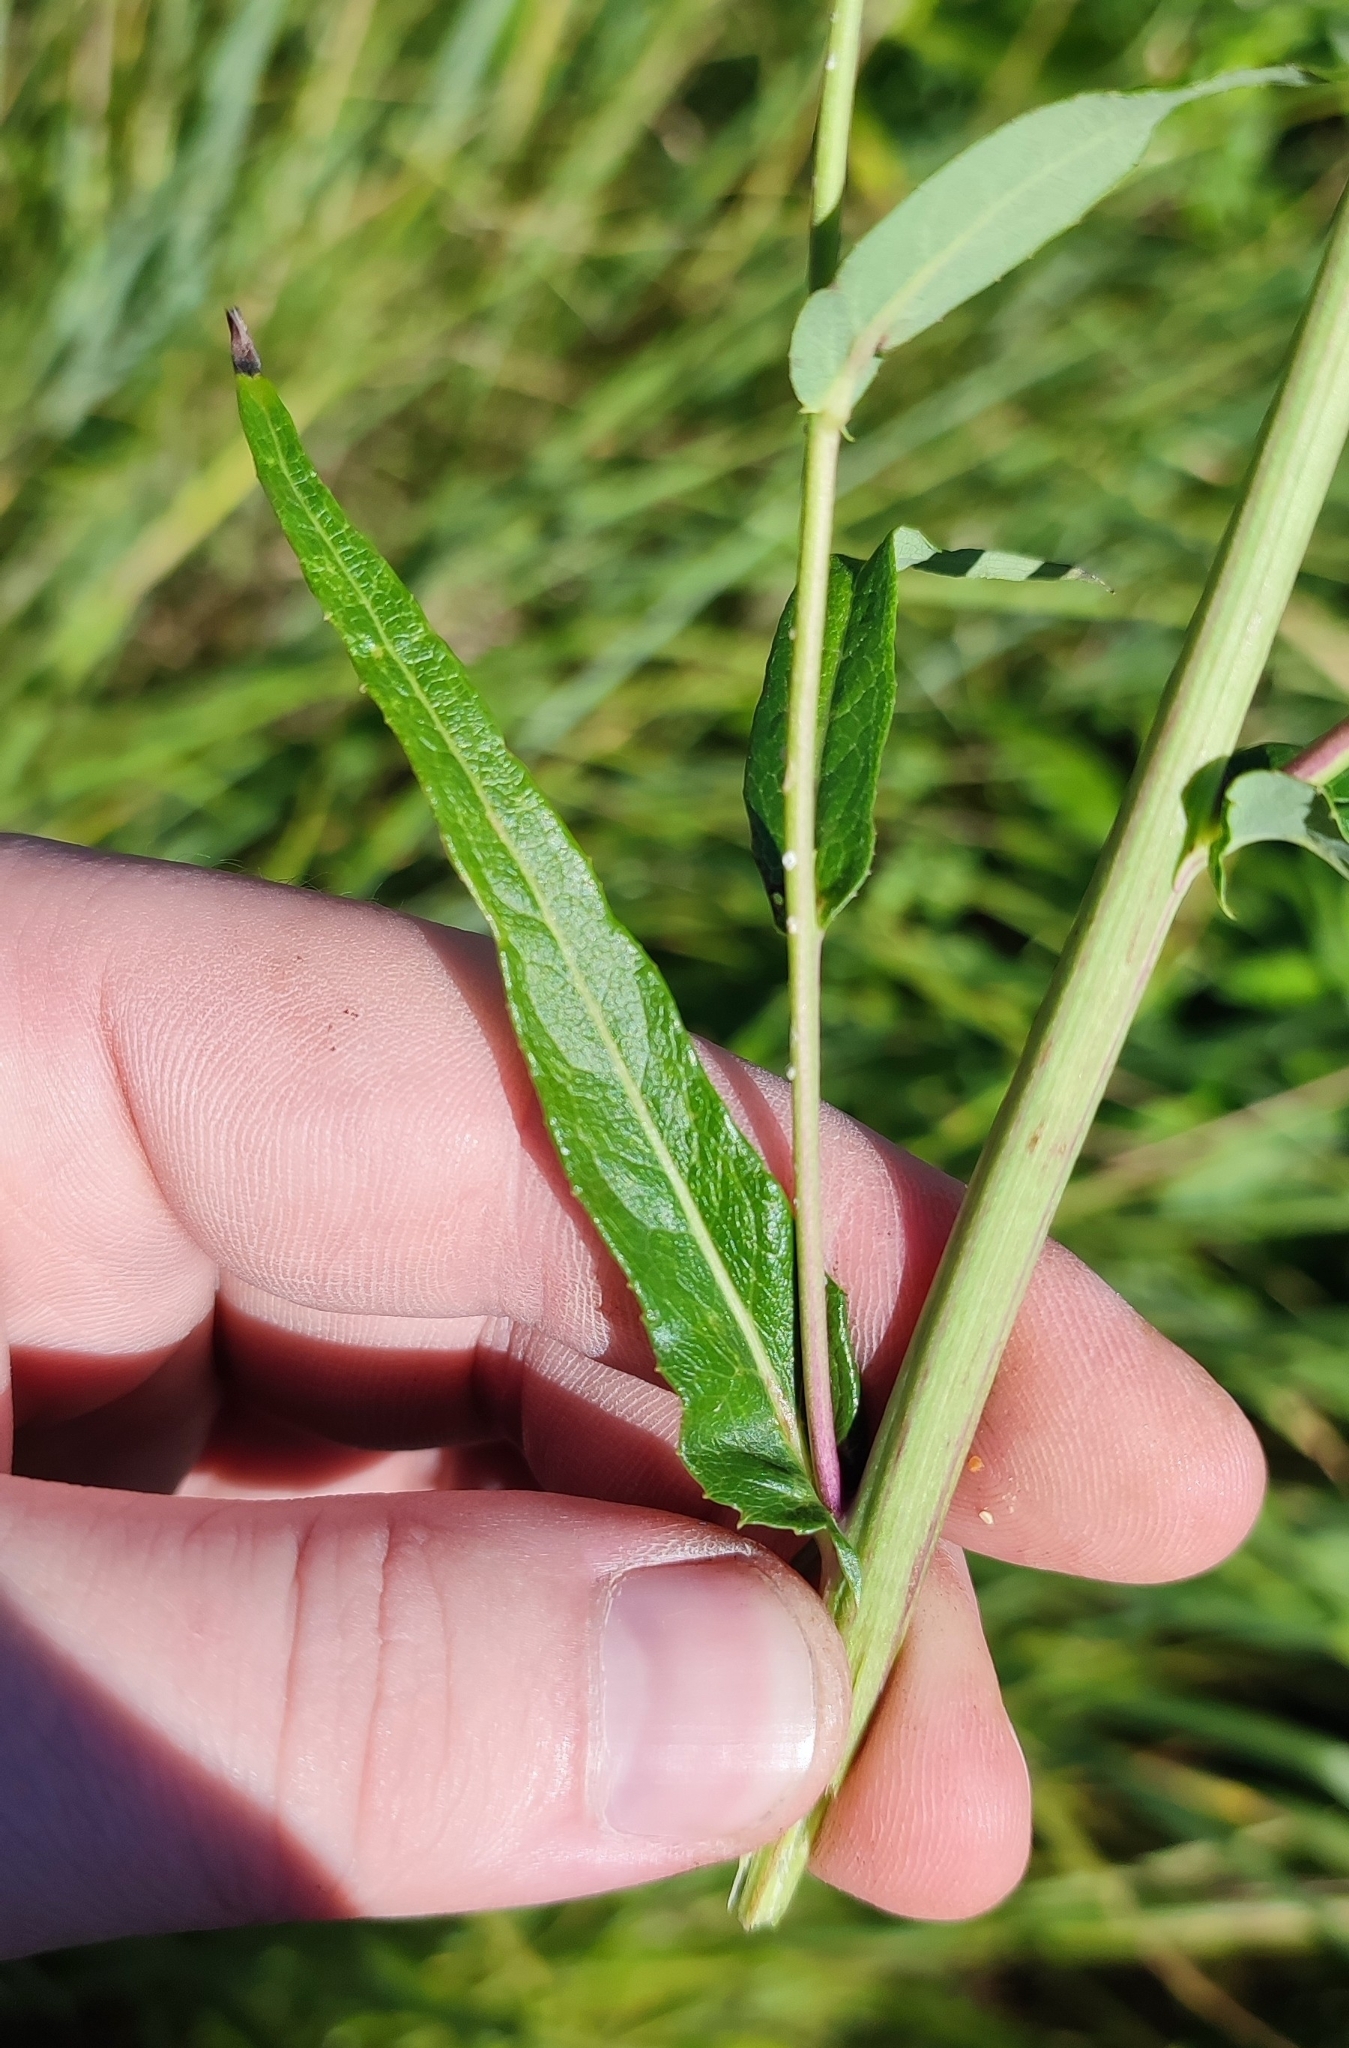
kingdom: Plantae
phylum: Tracheophyta
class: Magnoliopsida
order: Asterales
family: Asteraceae
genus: Lactuca
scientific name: Lactuca sibirica
